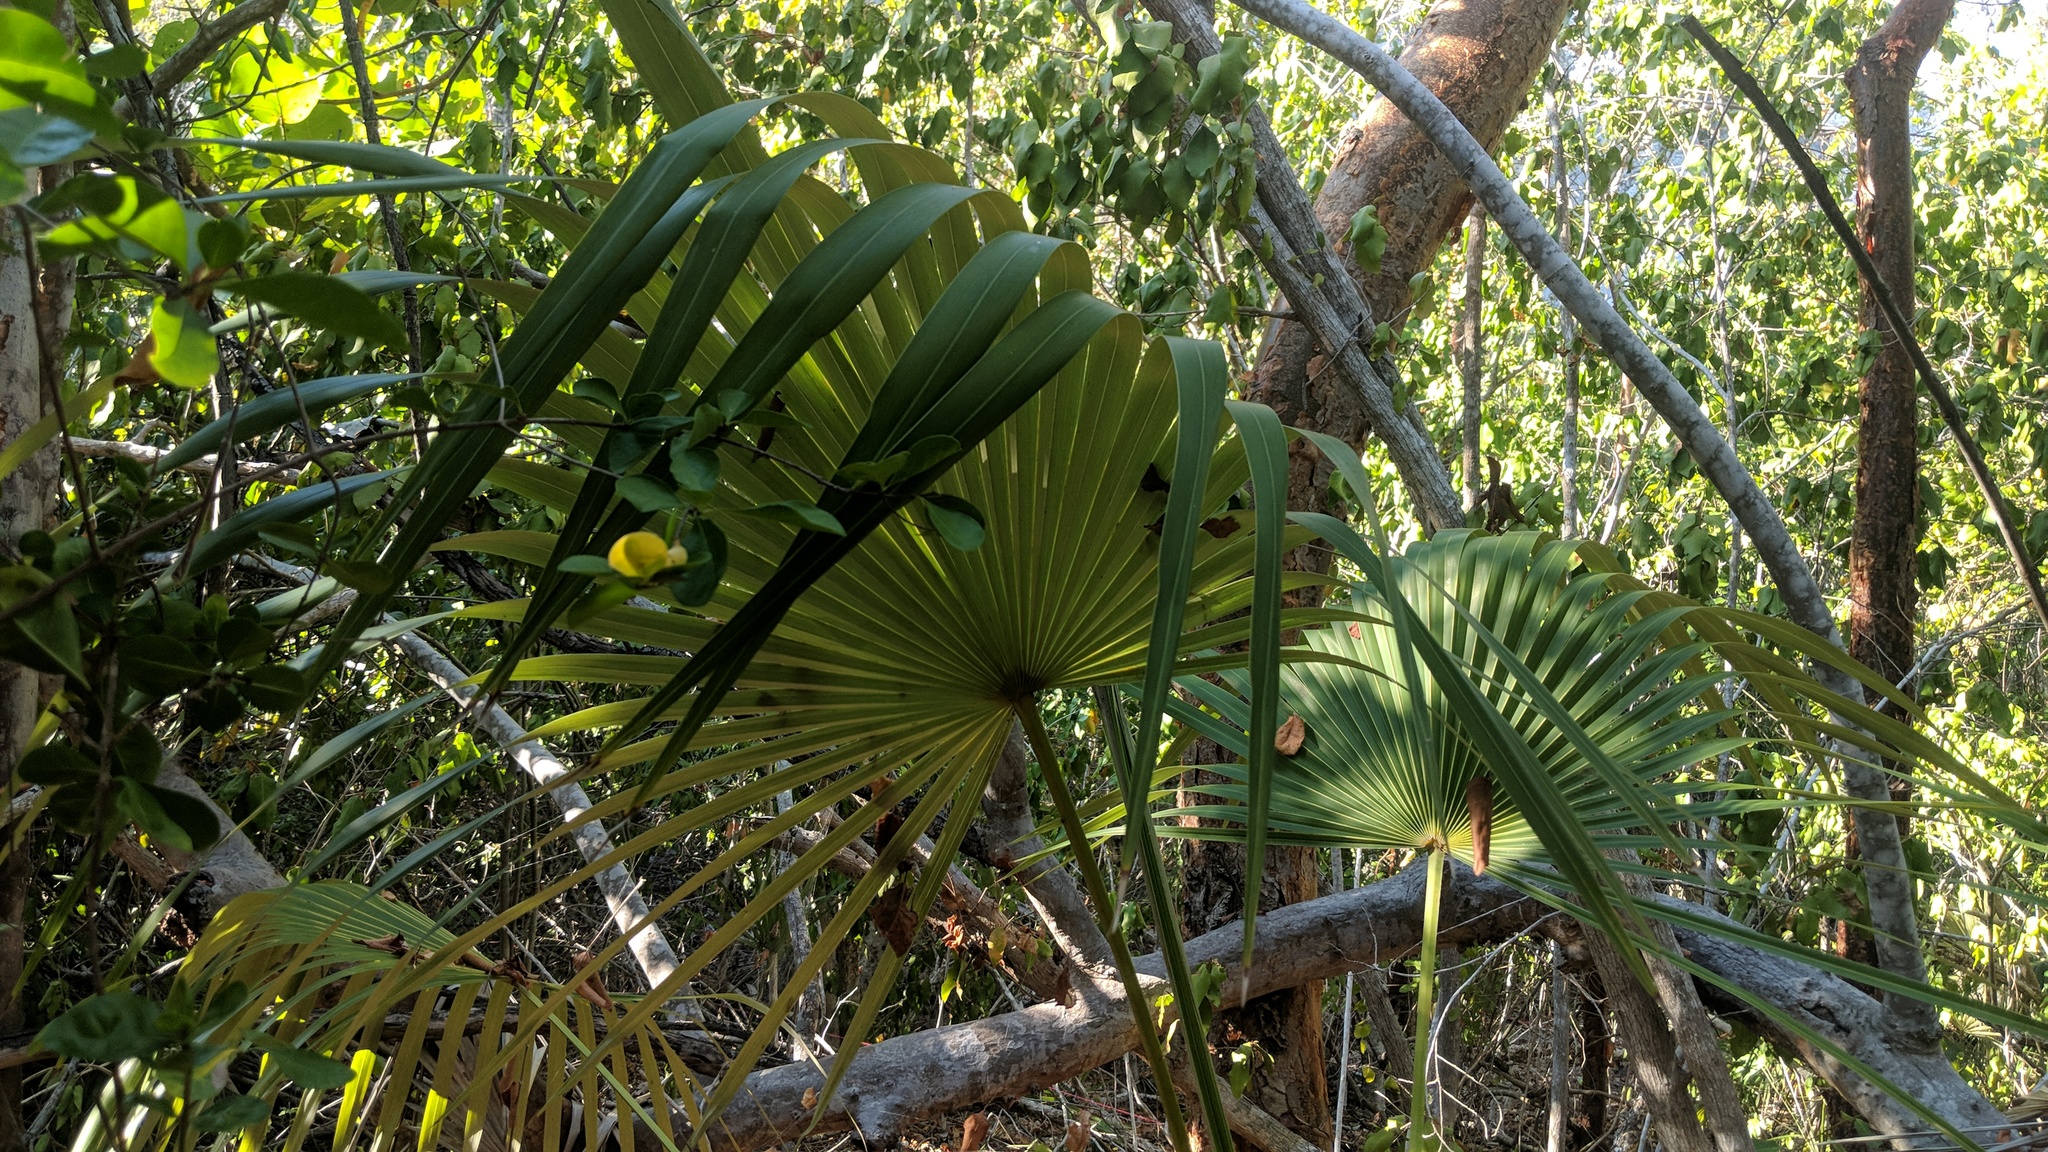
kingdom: Plantae
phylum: Tracheophyta
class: Liliopsida
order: Arecales
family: Arecaceae
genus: Coccothrinax
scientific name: Coccothrinax proctorii
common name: Silver palm
